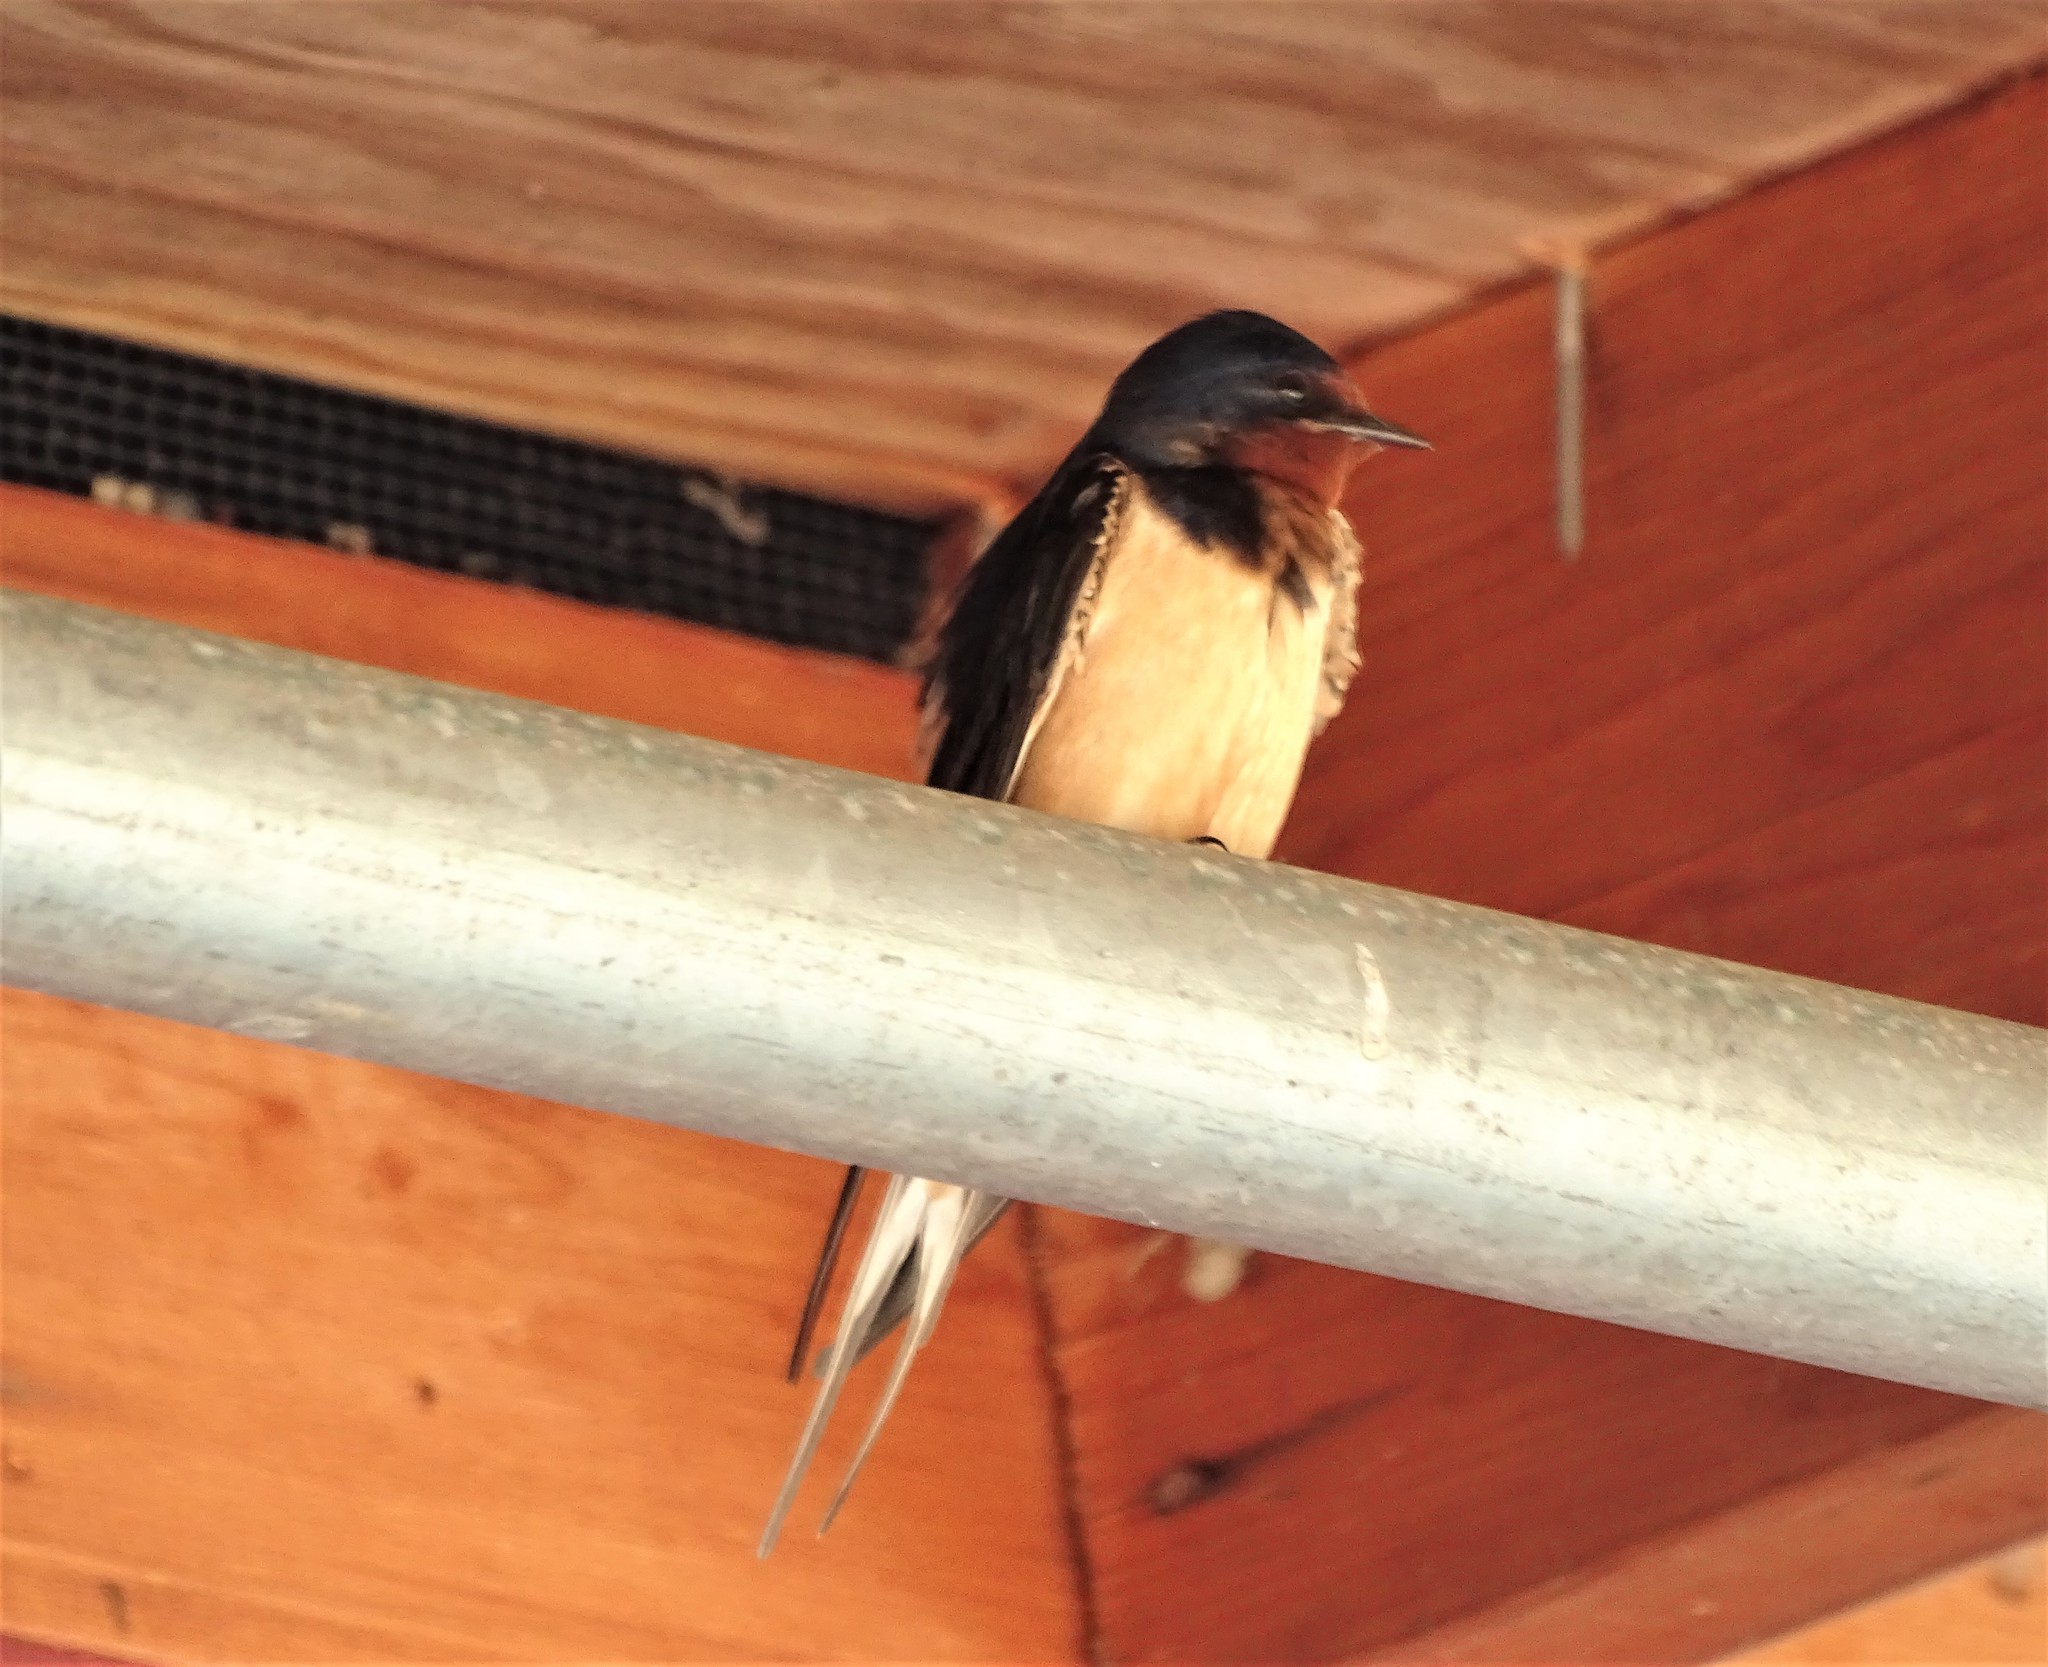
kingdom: Animalia
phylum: Chordata
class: Aves
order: Passeriformes
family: Hirundinidae
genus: Hirundo
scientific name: Hirundo rustica
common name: Barn swallow
